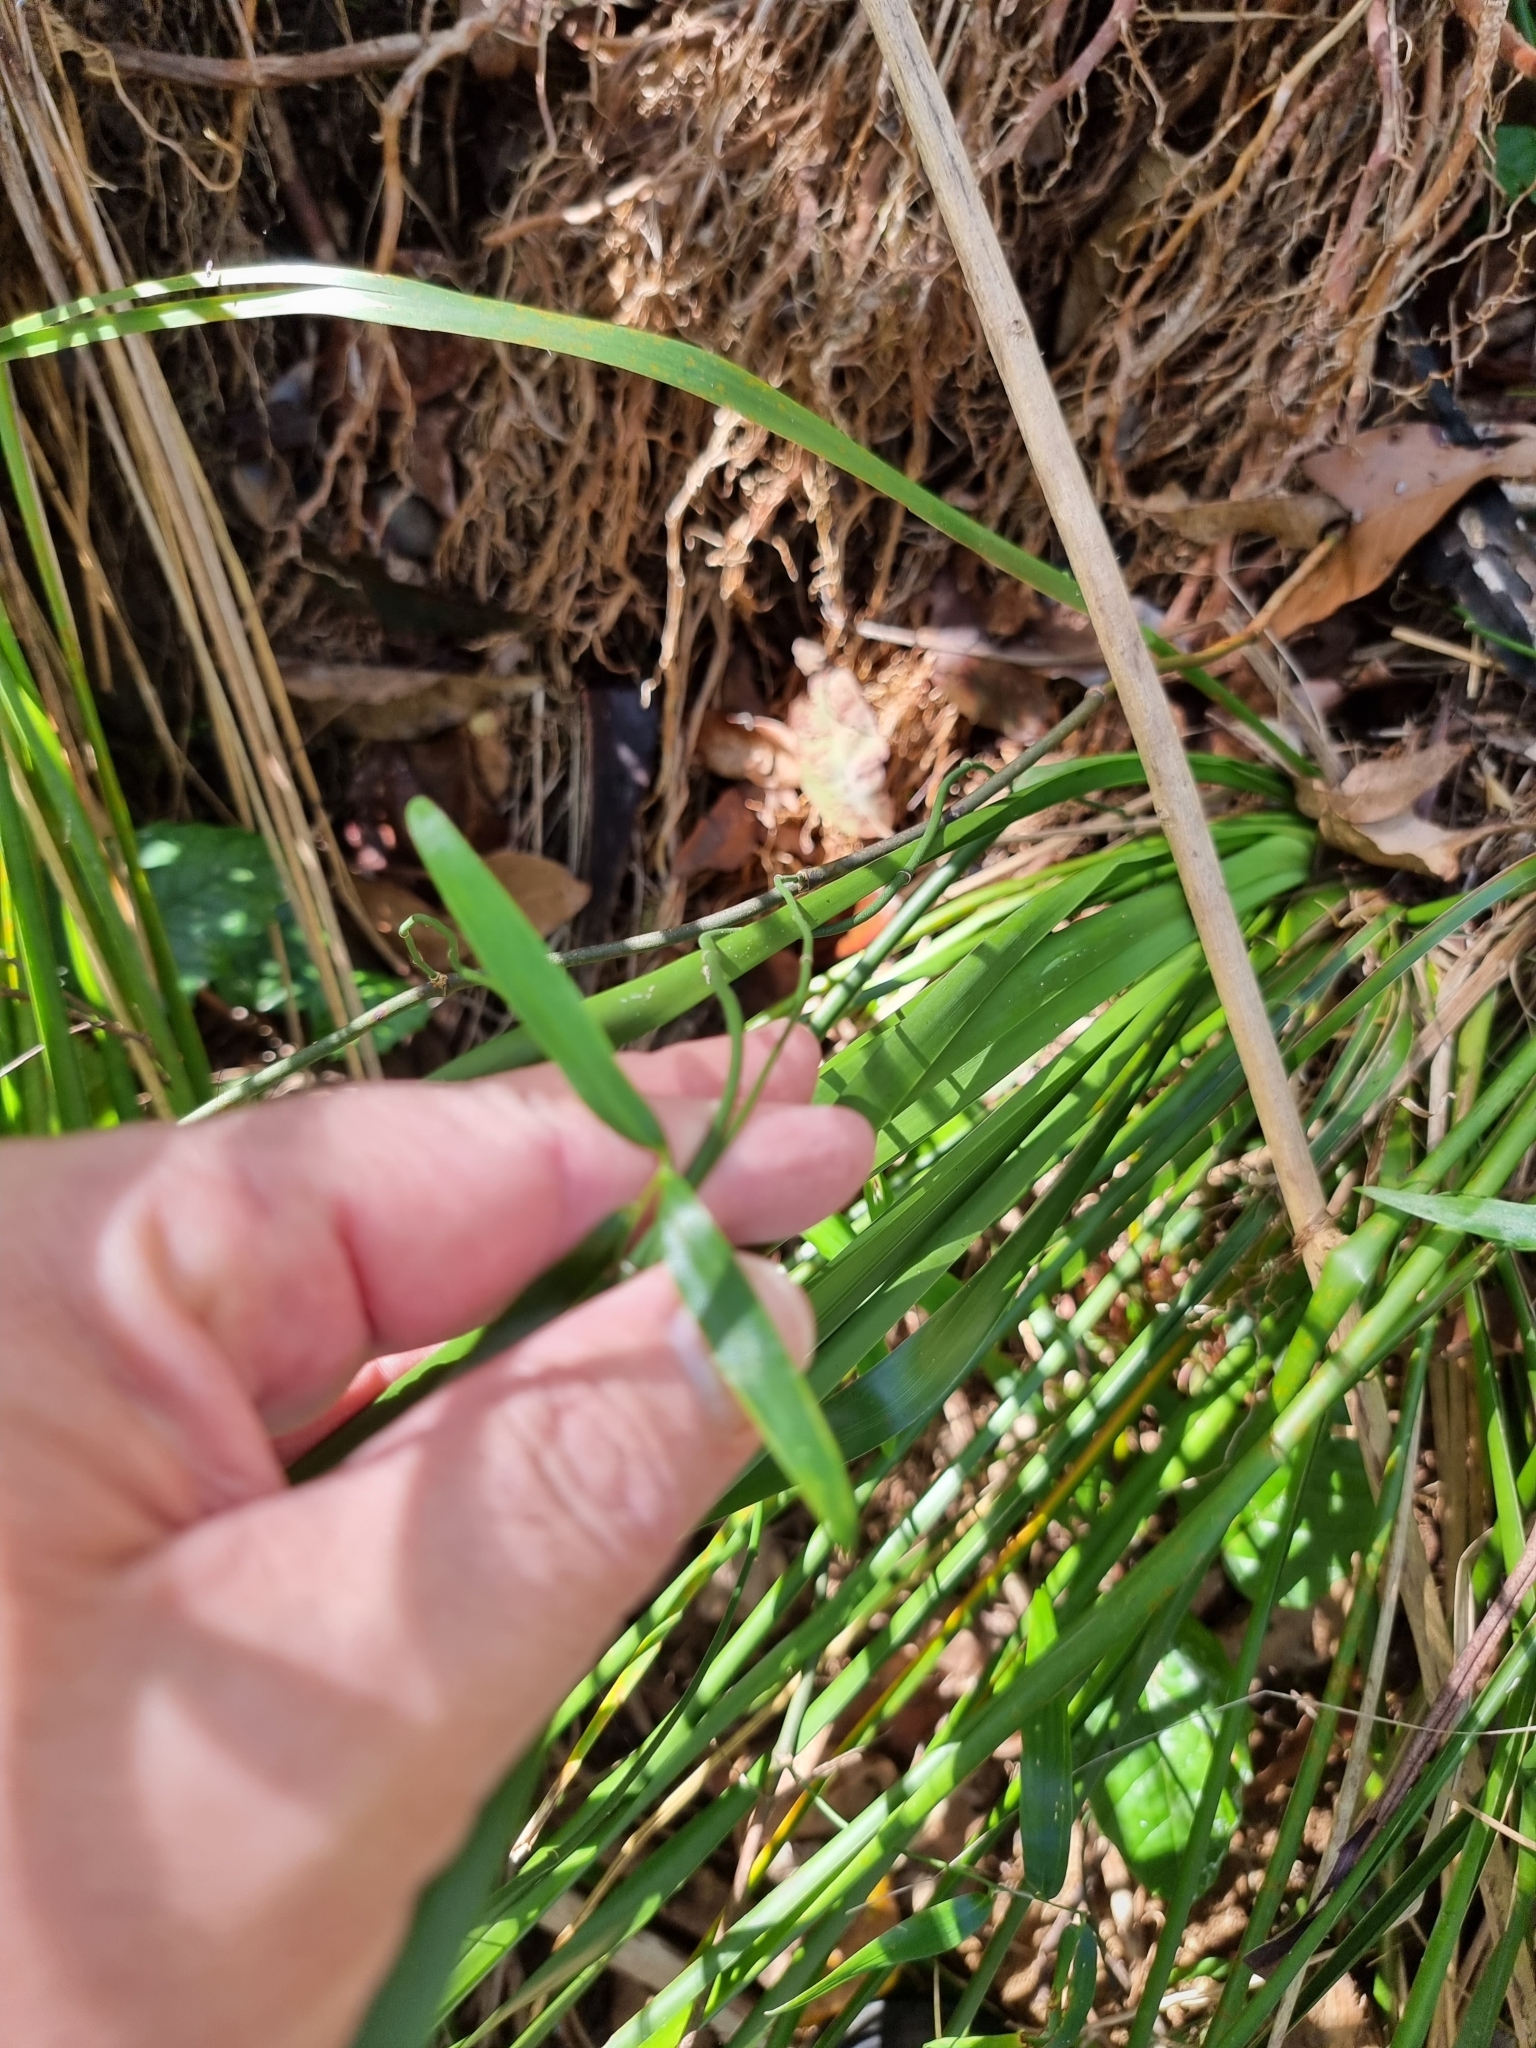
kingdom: Plantae
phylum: Tracheophyta
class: Liliopsida
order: Asparagales
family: Asphodelaceae
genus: Geitonoplesium
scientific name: Geitonoplesium cymosum
